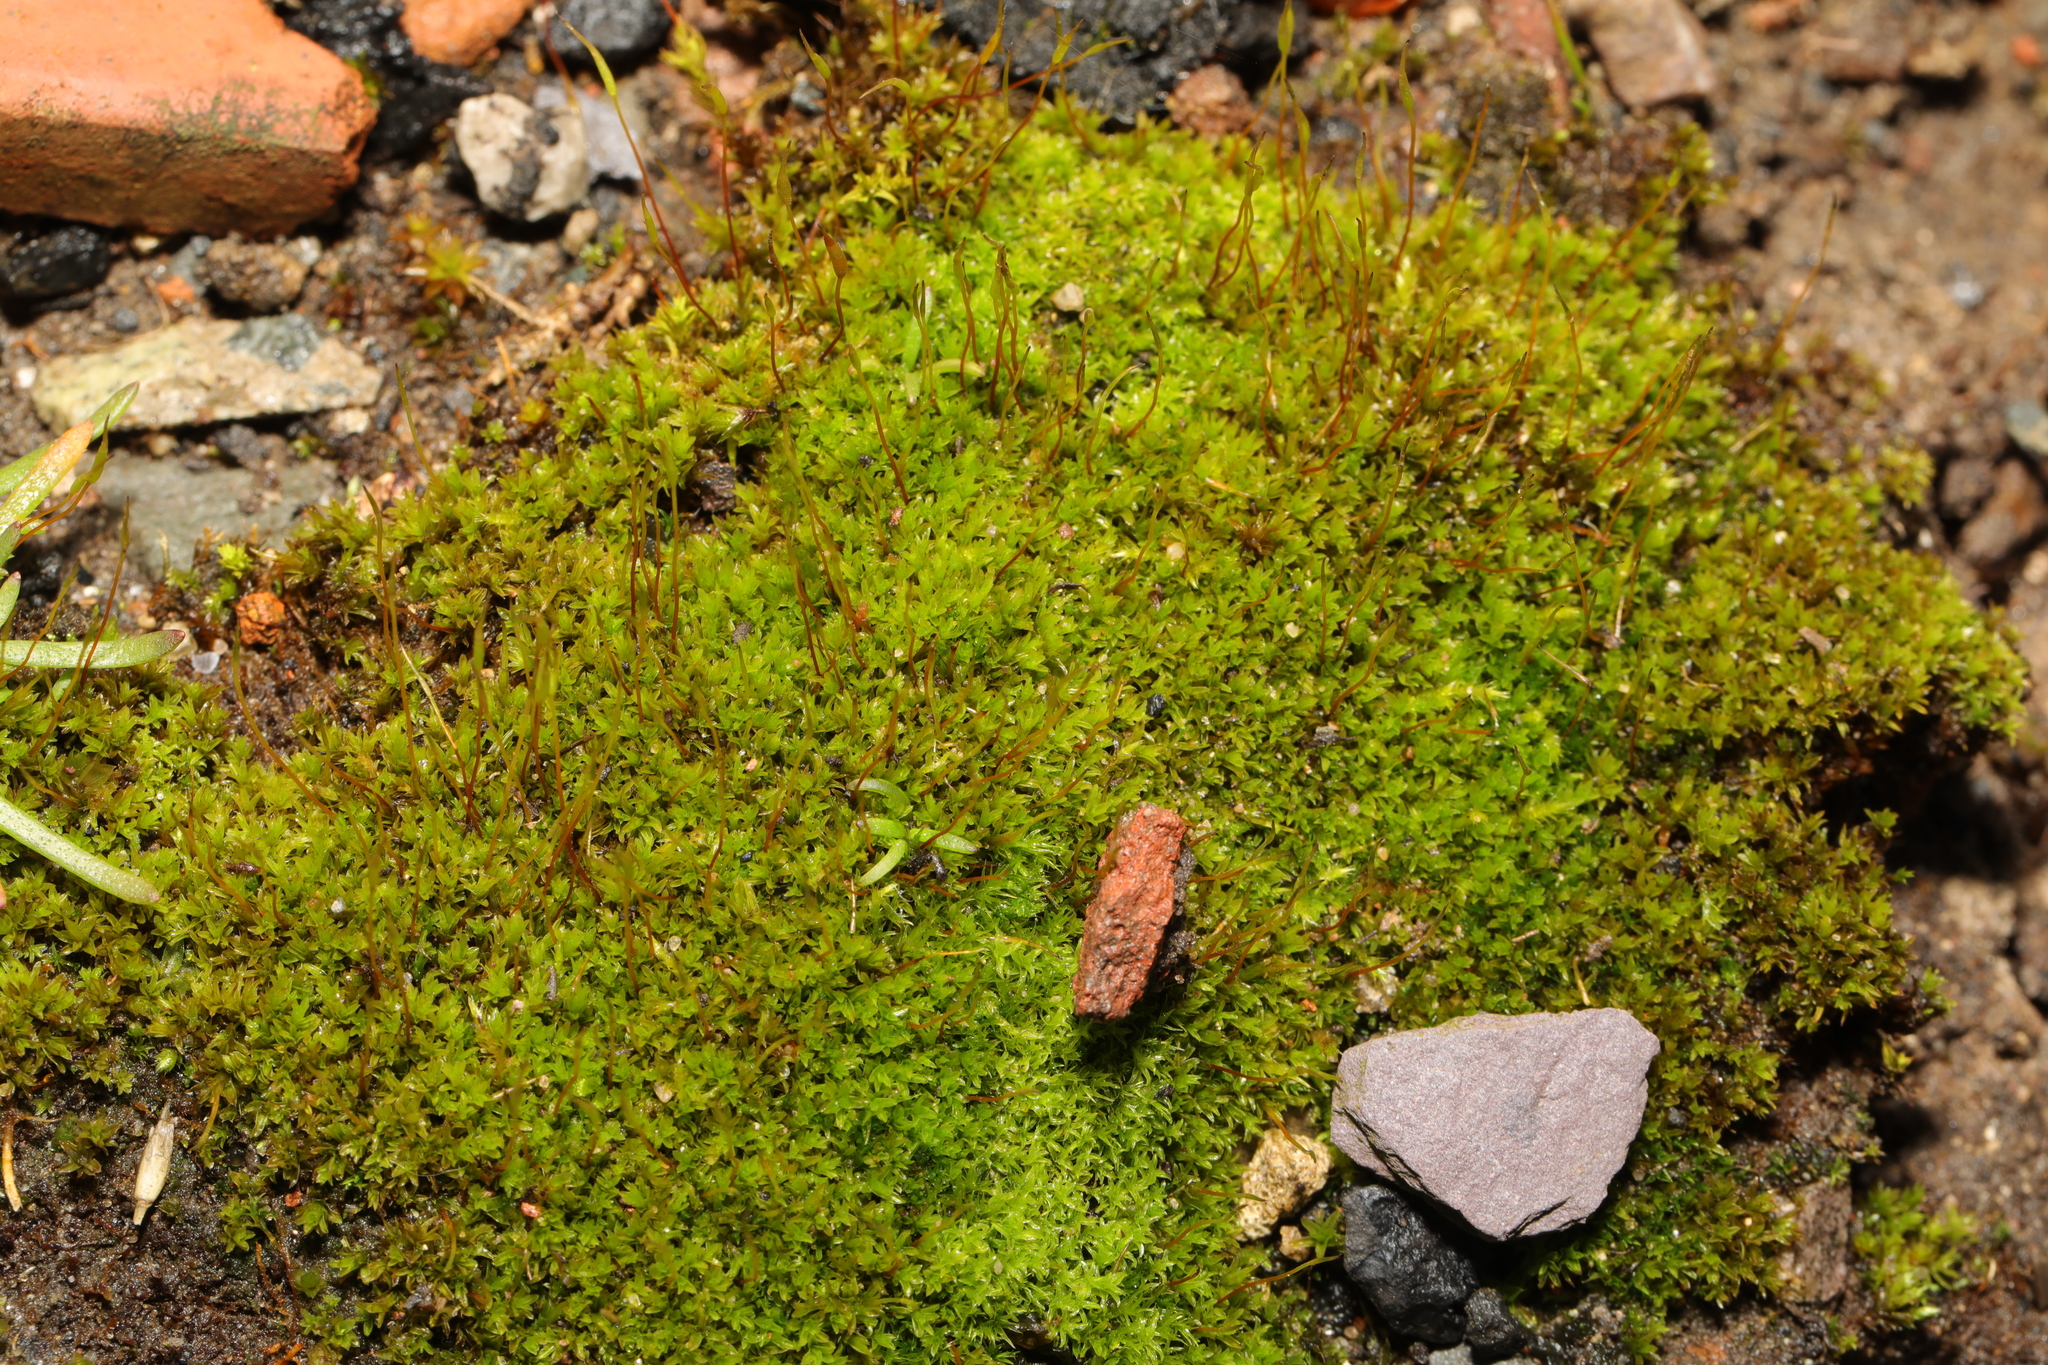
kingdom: Plantae
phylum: Bryophyta
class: Bryopsida
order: Pottiales
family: Pottiaceae
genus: Barbula
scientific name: Barbula unguiculata
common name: Prickly beard moss
